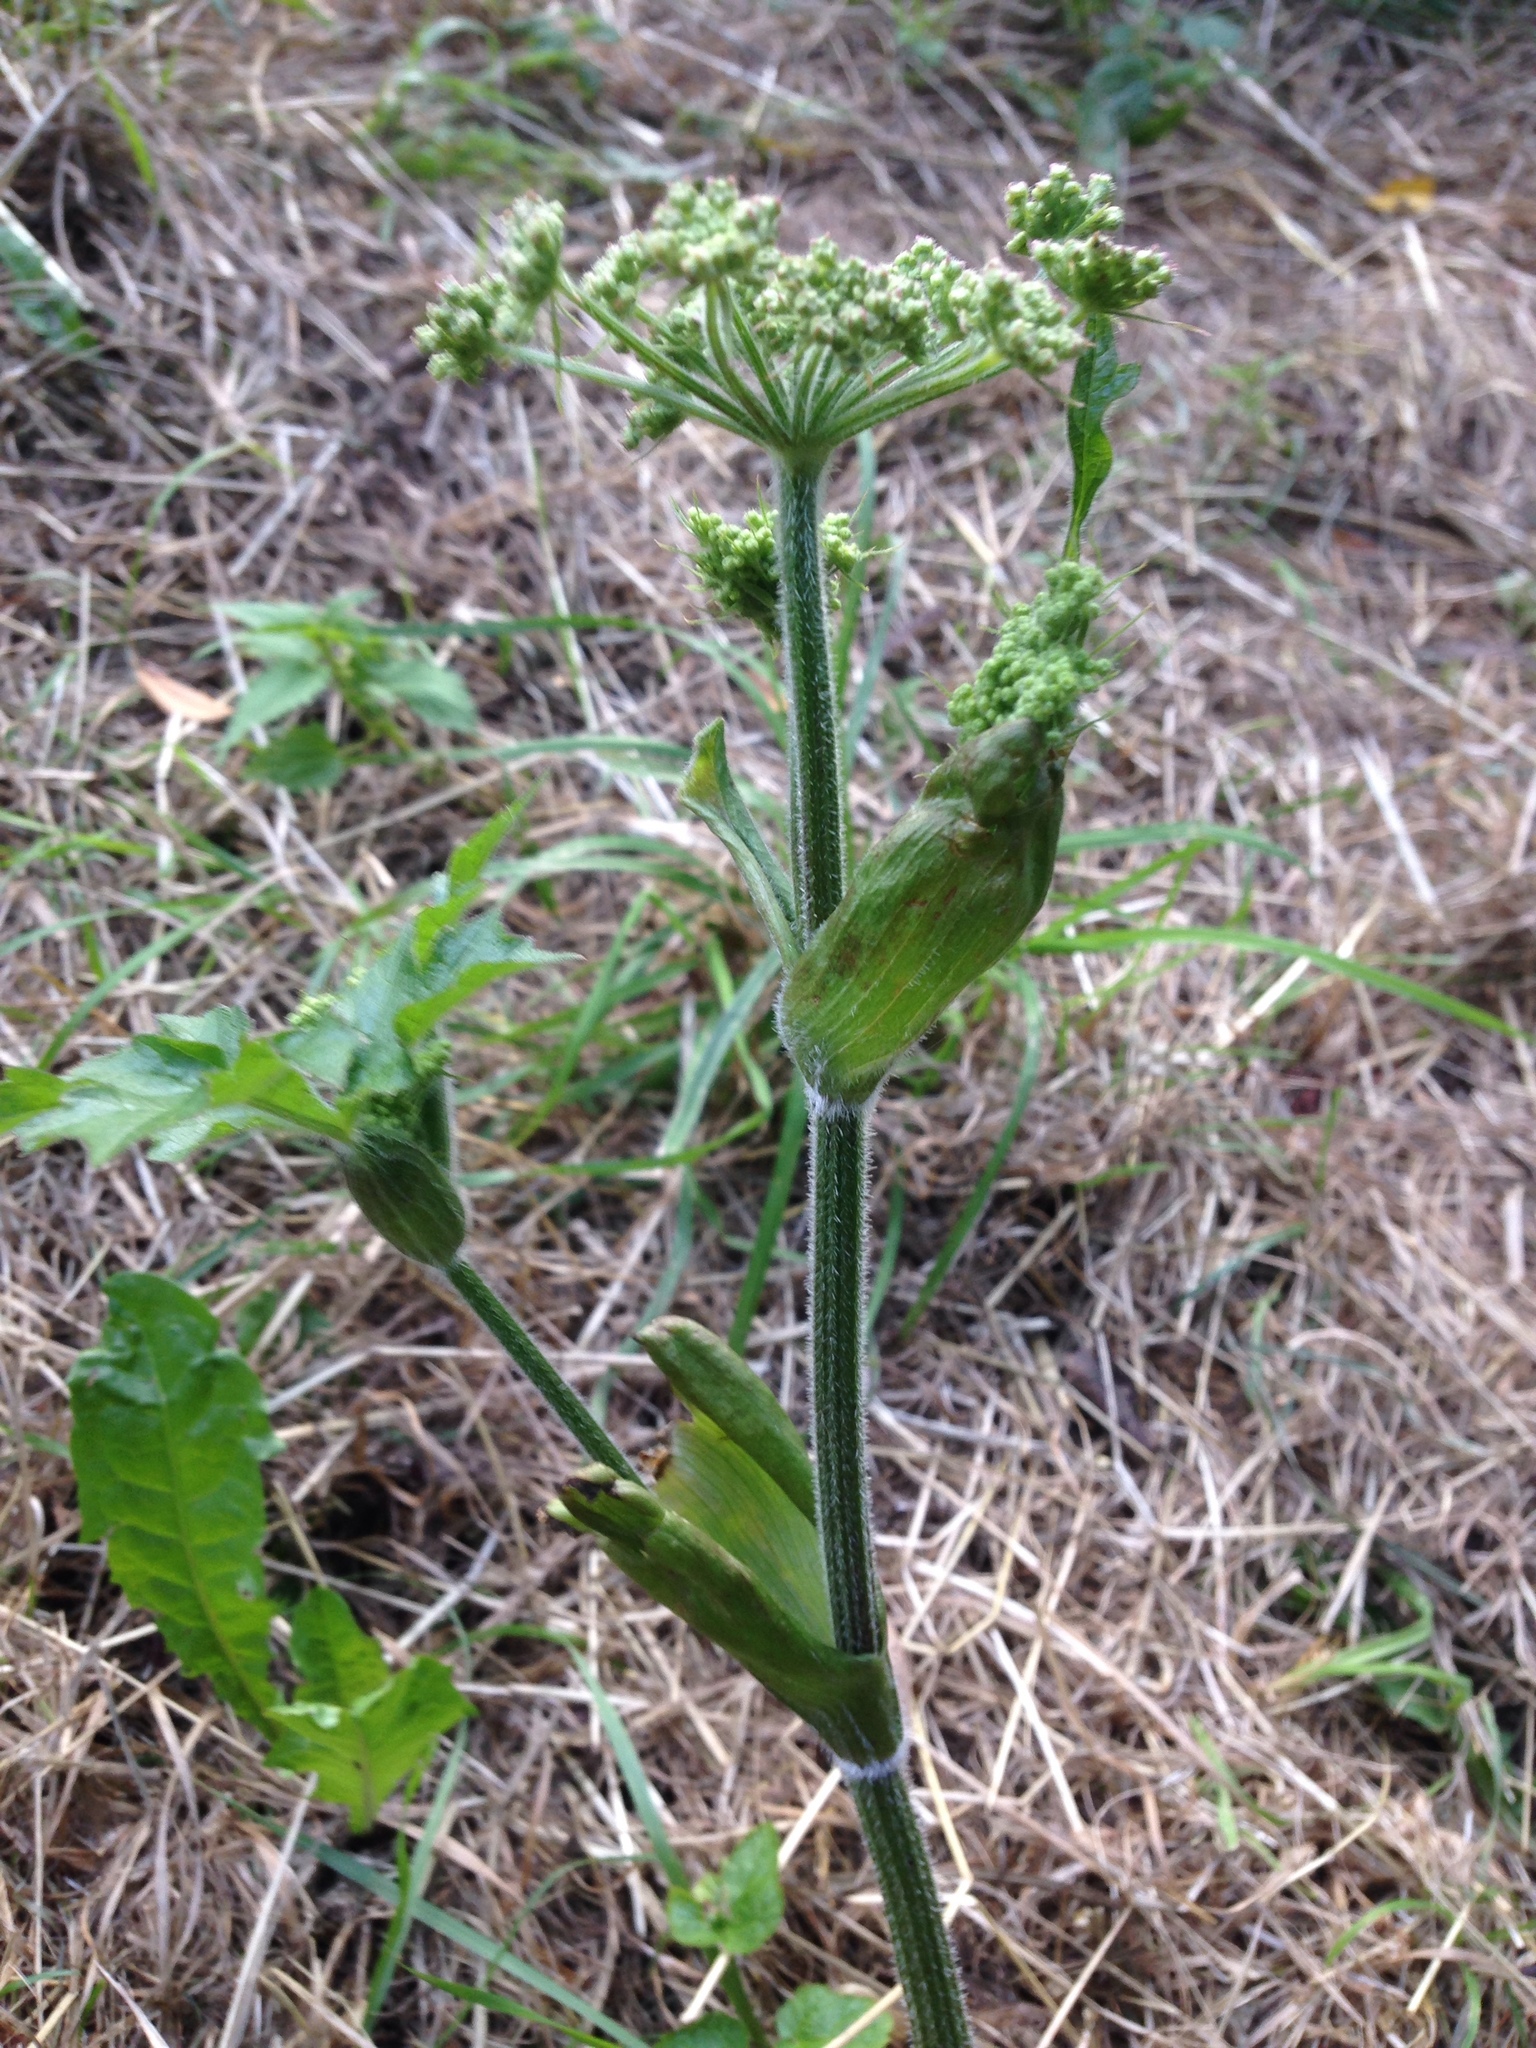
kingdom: Plantae
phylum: Tracheophyta
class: Magnoliopsida
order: Apiales
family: Apiaceae
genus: Heracleum
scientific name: Heracleum sphondylium
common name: Hogweed
